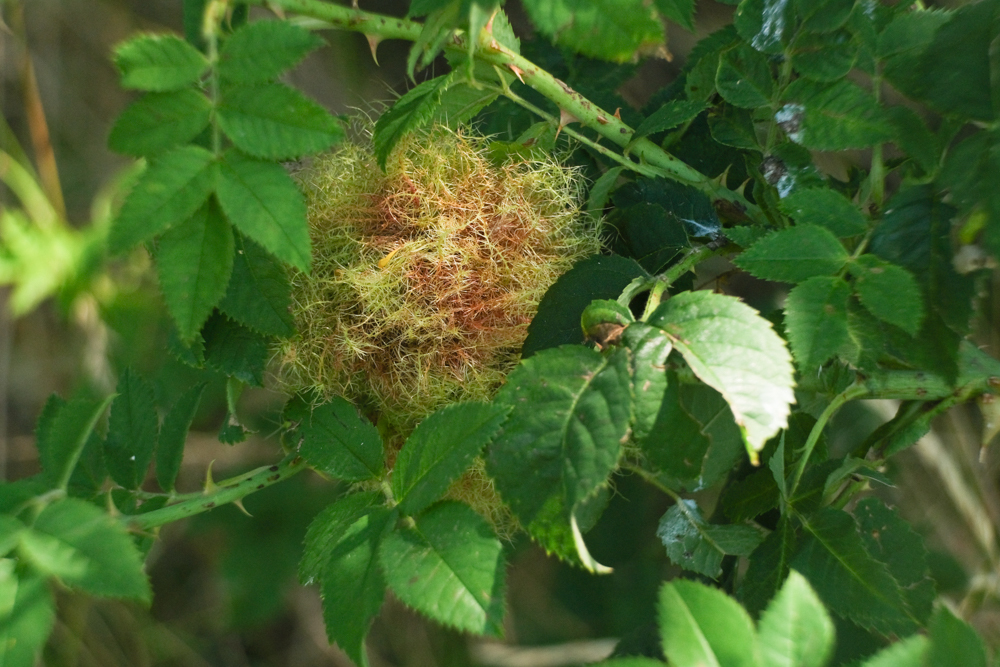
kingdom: Animalia
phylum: Arthropoda
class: Insecta
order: Hymenoptera
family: Cynipidae
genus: Diplolepis
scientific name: Diplolepis rosae
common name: Bedeguar gall
